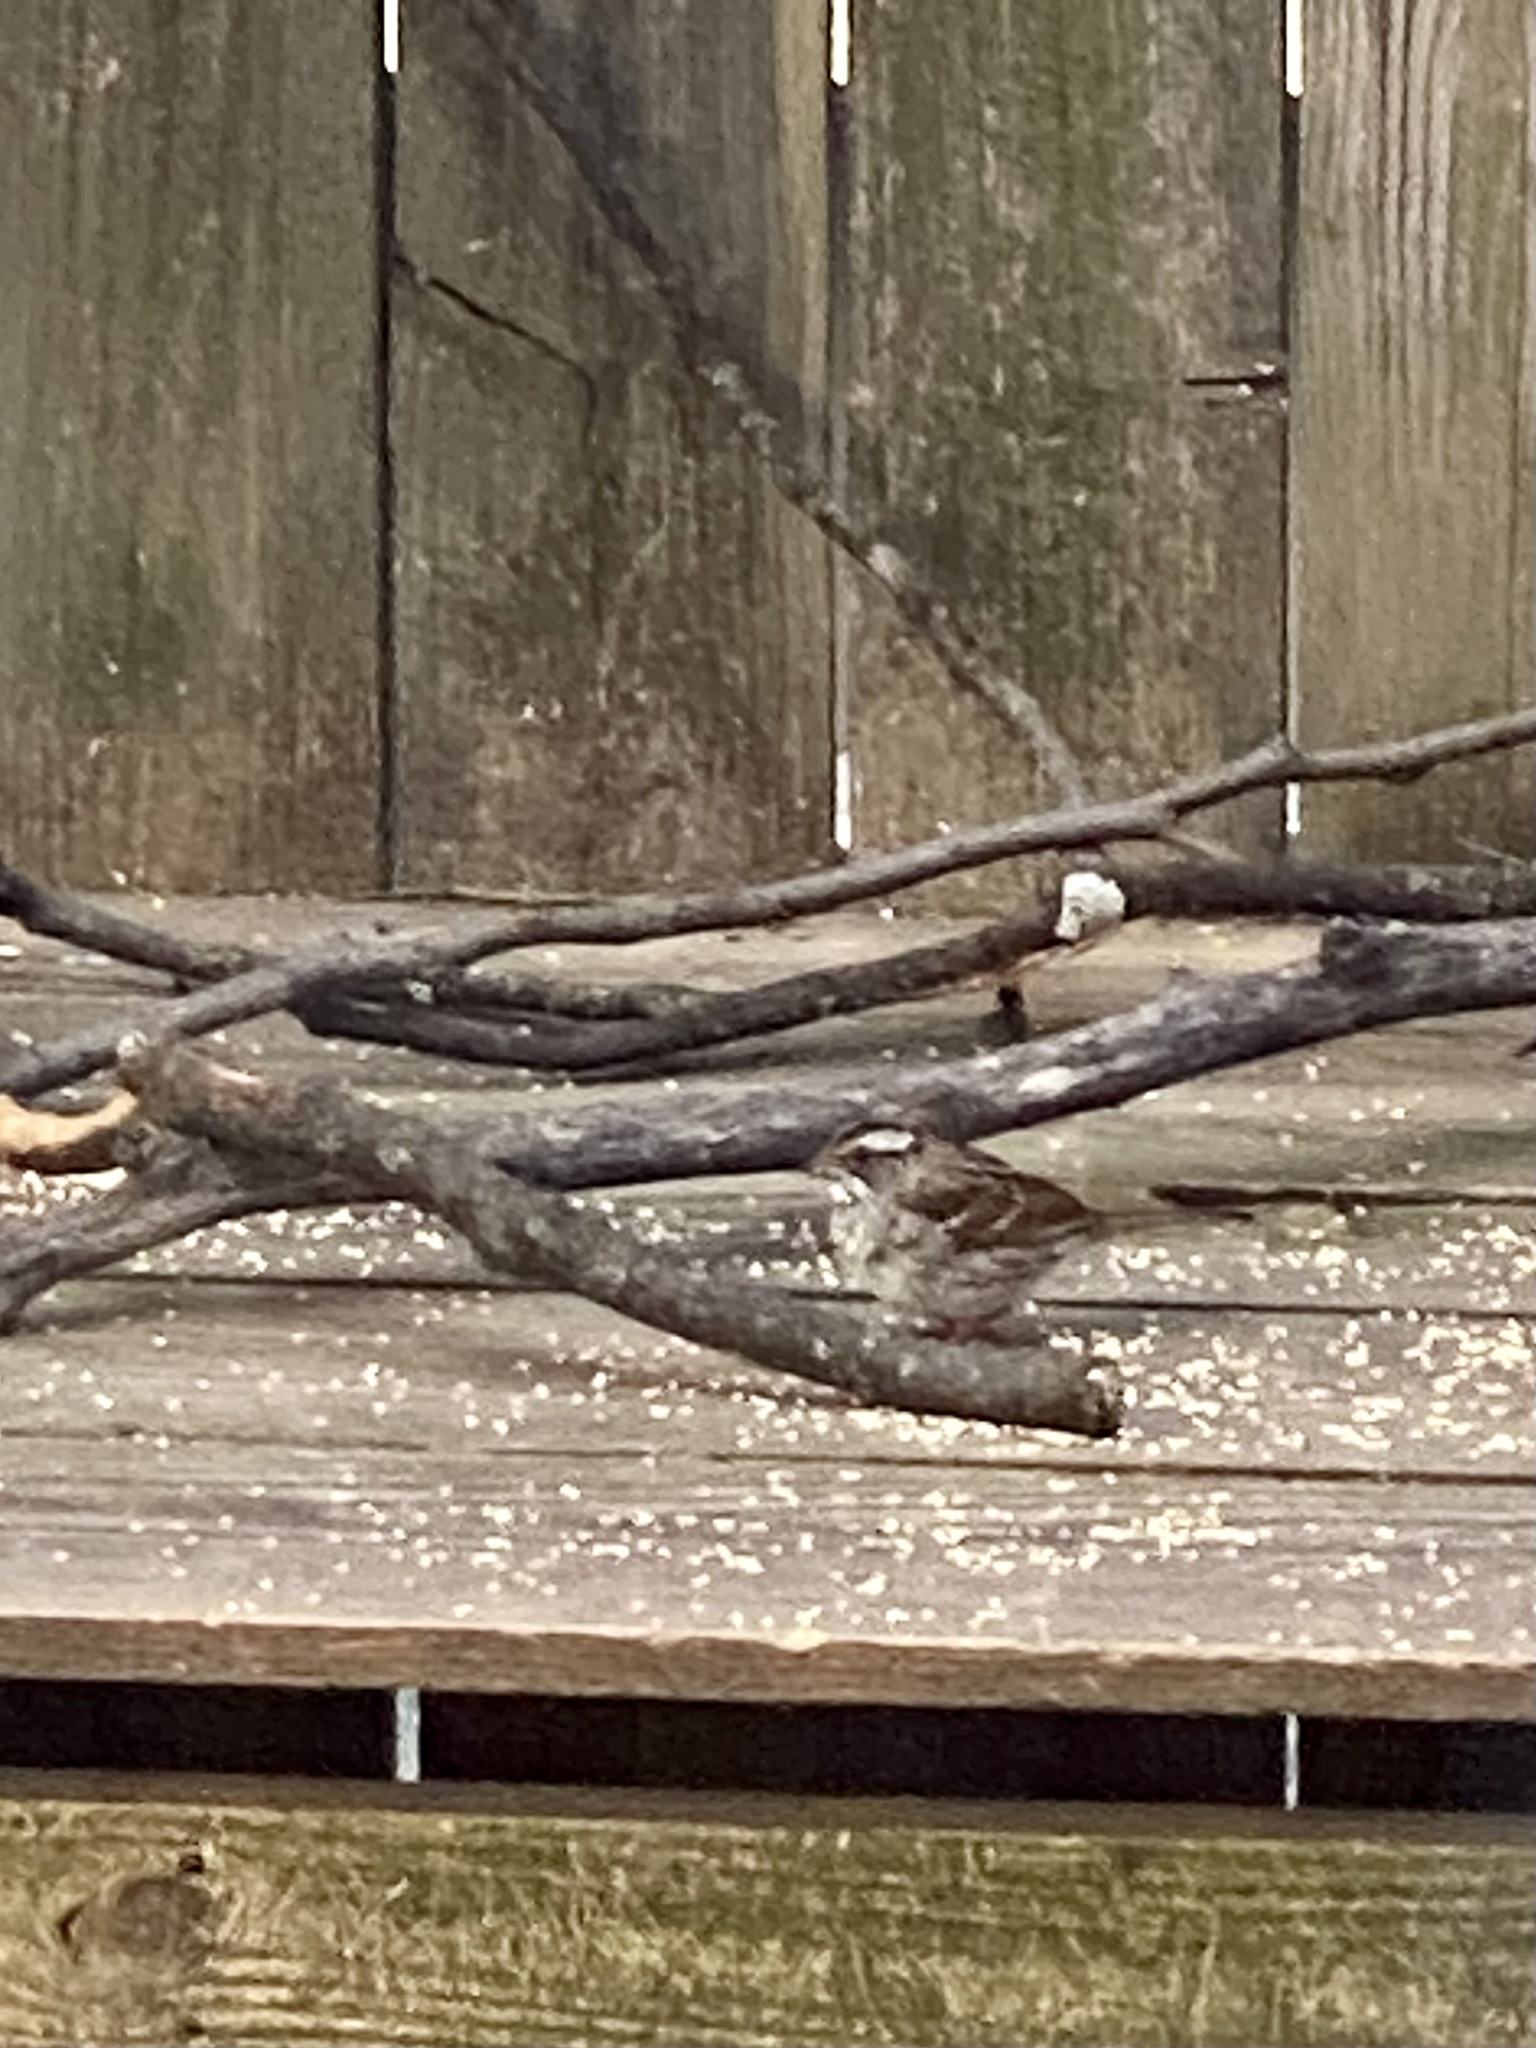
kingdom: Animalia
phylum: Chordata
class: Aves
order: Passeriformes
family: Passerellidae
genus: Zonotrichia
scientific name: Zonotrichia albicollis
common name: White-throated sparrow
